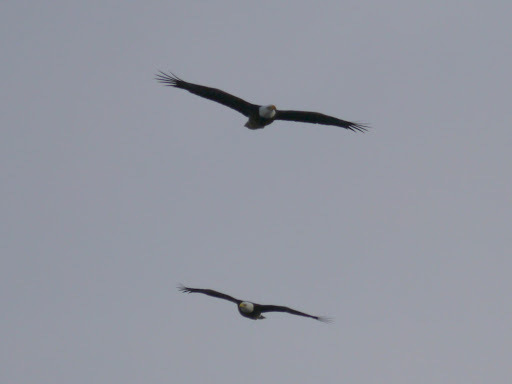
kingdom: Animalia
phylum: Chordata
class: Aves
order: Accipitriformes
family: Accipitridae
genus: Haliaeetus
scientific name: Haliaeetus leucocephalus
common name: Bald eagle
